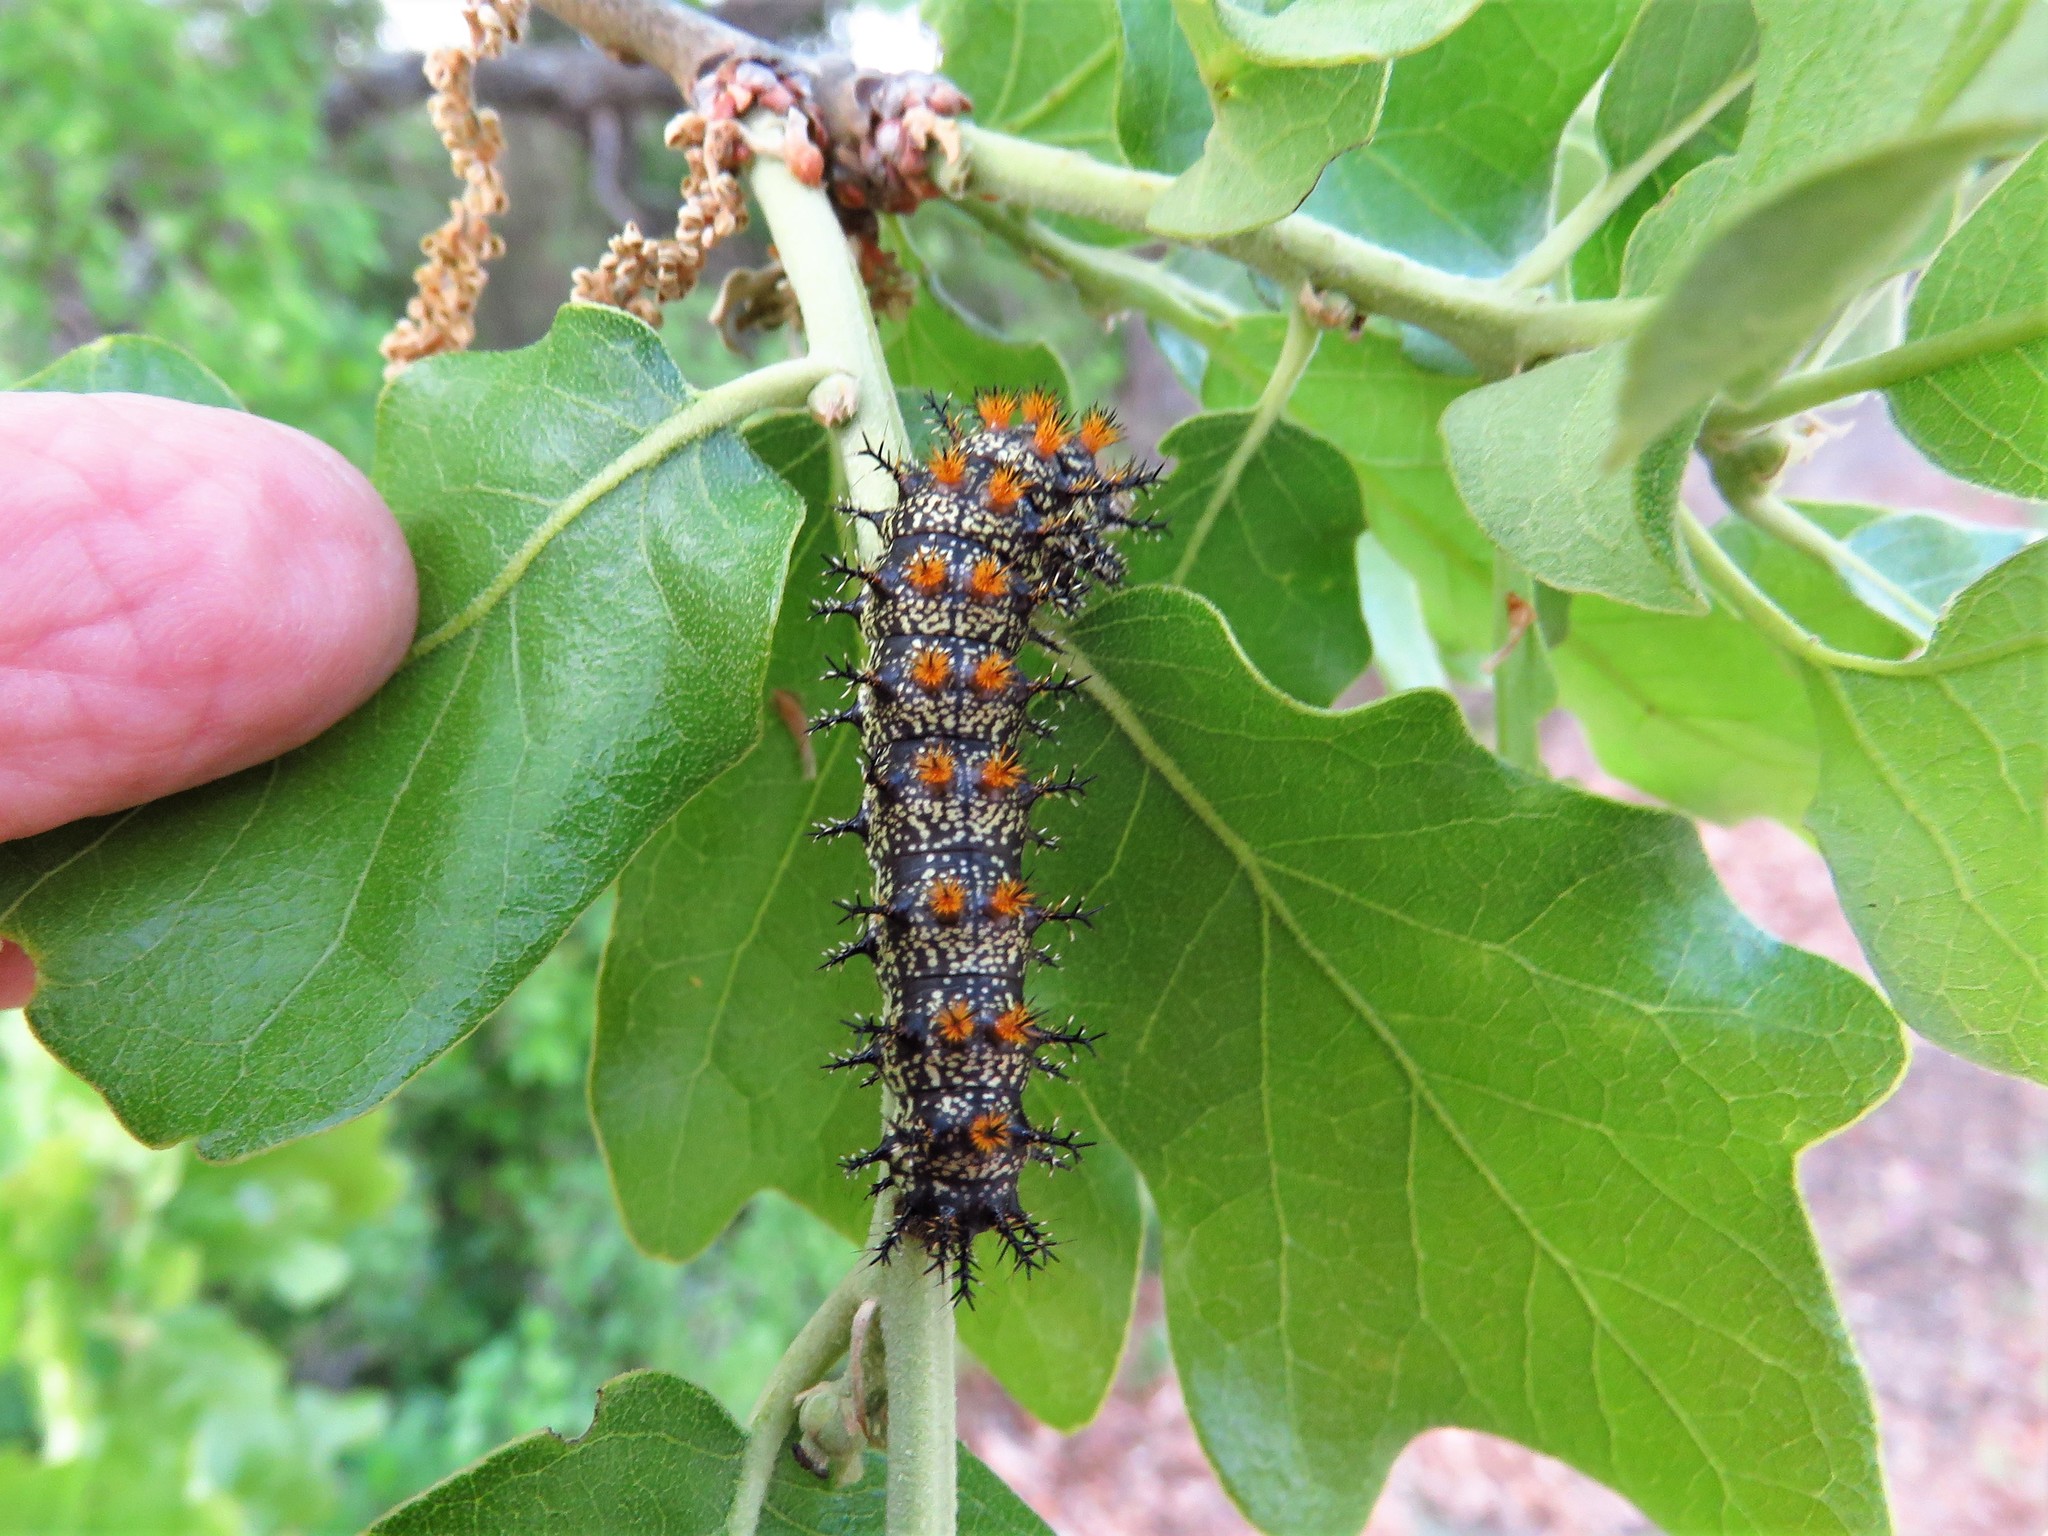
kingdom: Animalia
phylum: Arthropoda
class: Insecta
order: Lepidoptera
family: Nymphalidae
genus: Junonia
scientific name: Junonia coenia
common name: Common buckeye
